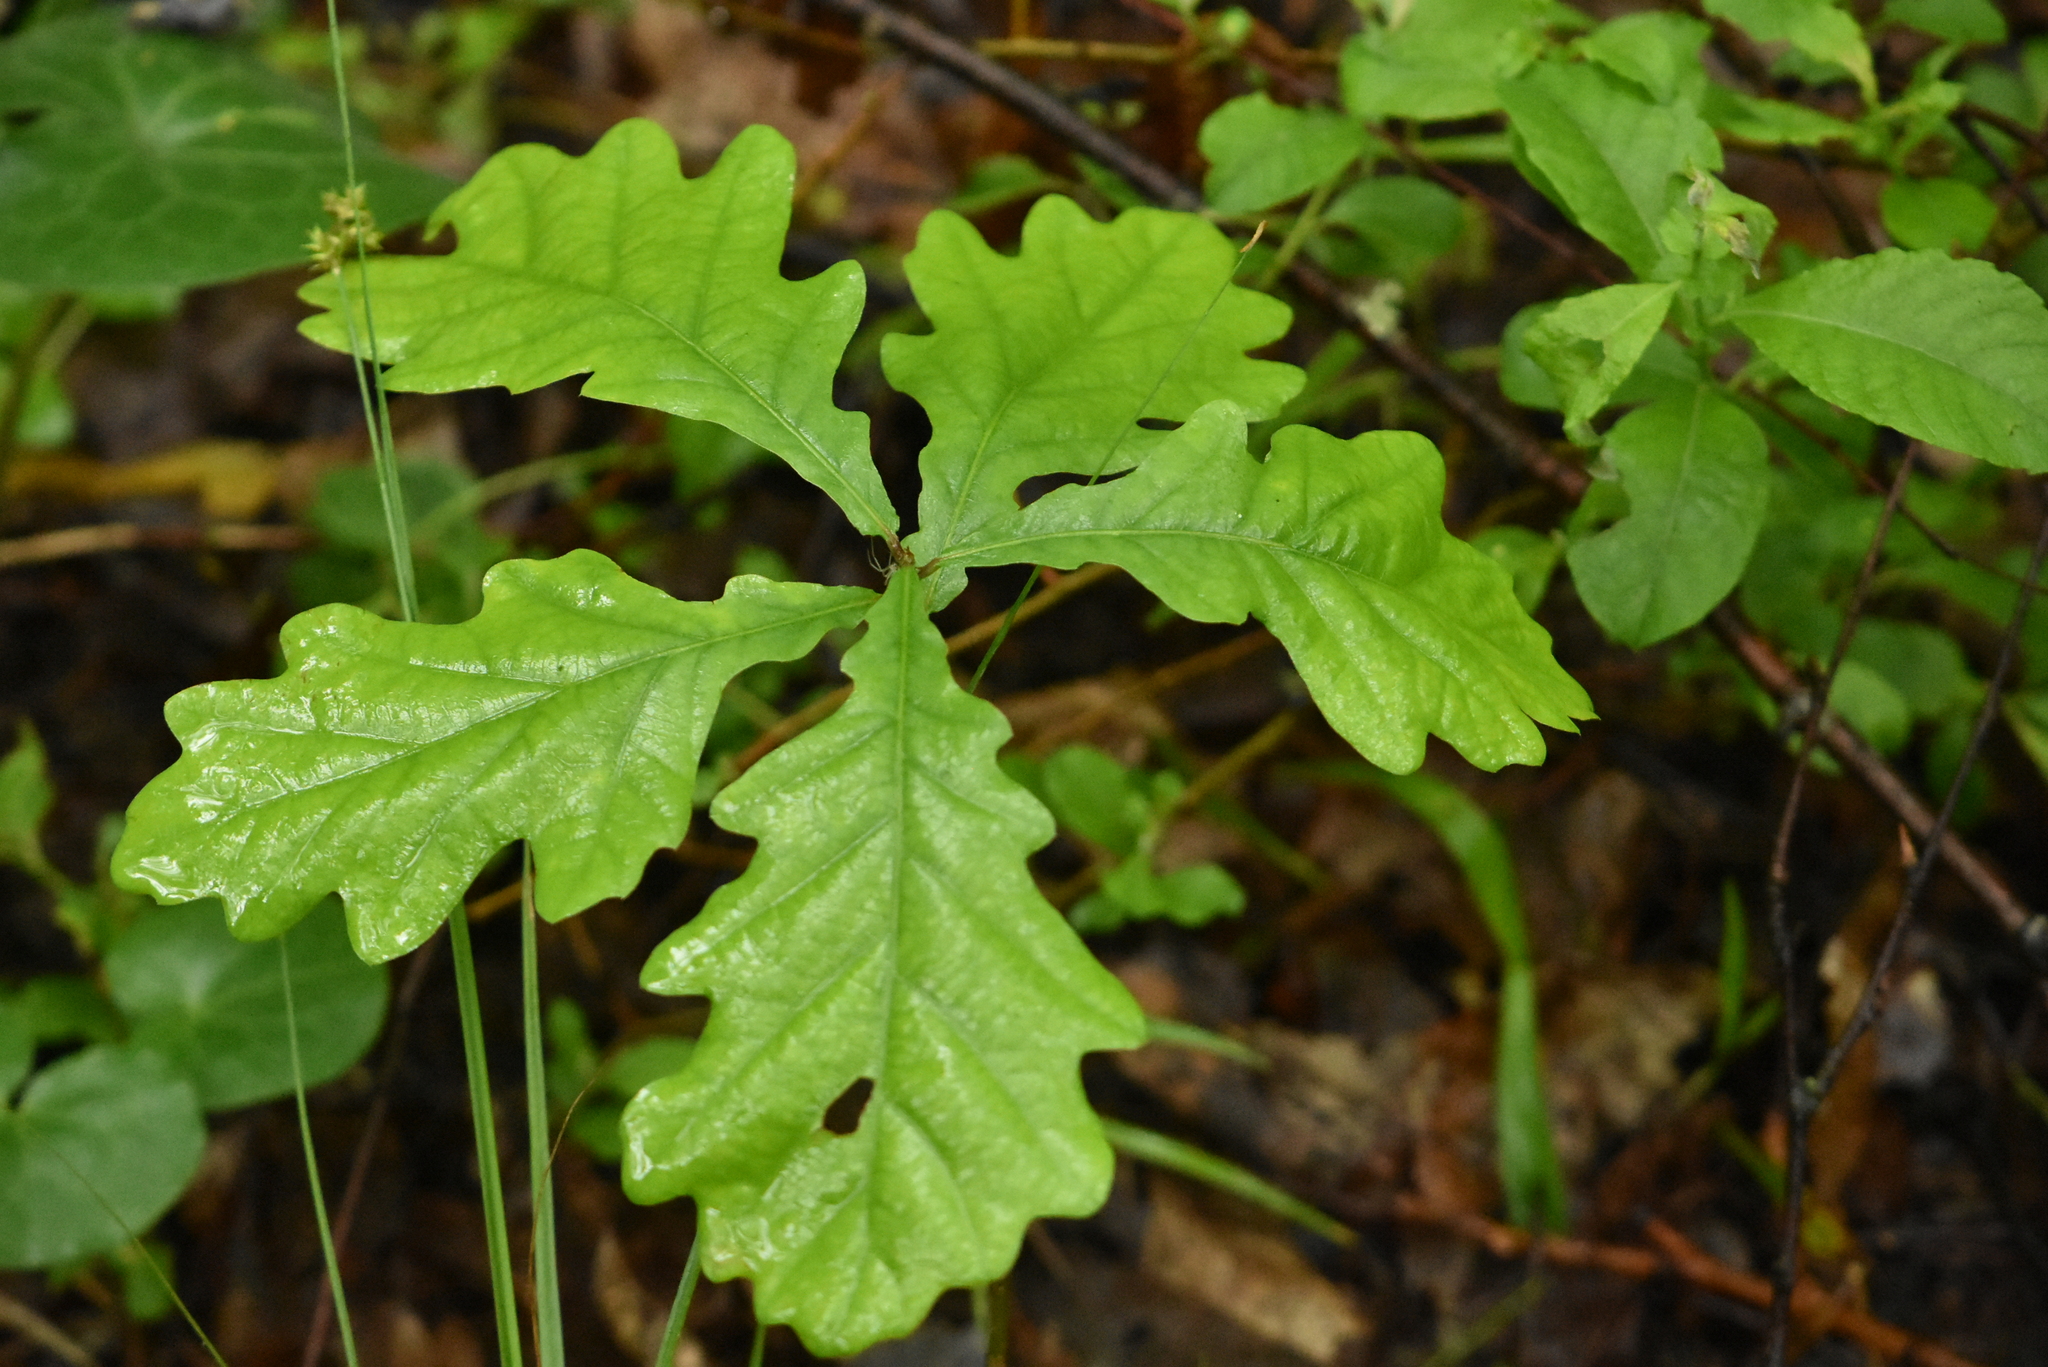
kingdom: Plantae
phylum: Tracheophyta
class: Magnoliopsida
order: Fagales
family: Fagaceae
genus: Quercus
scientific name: Quercus robur
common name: Pedunculate oak
